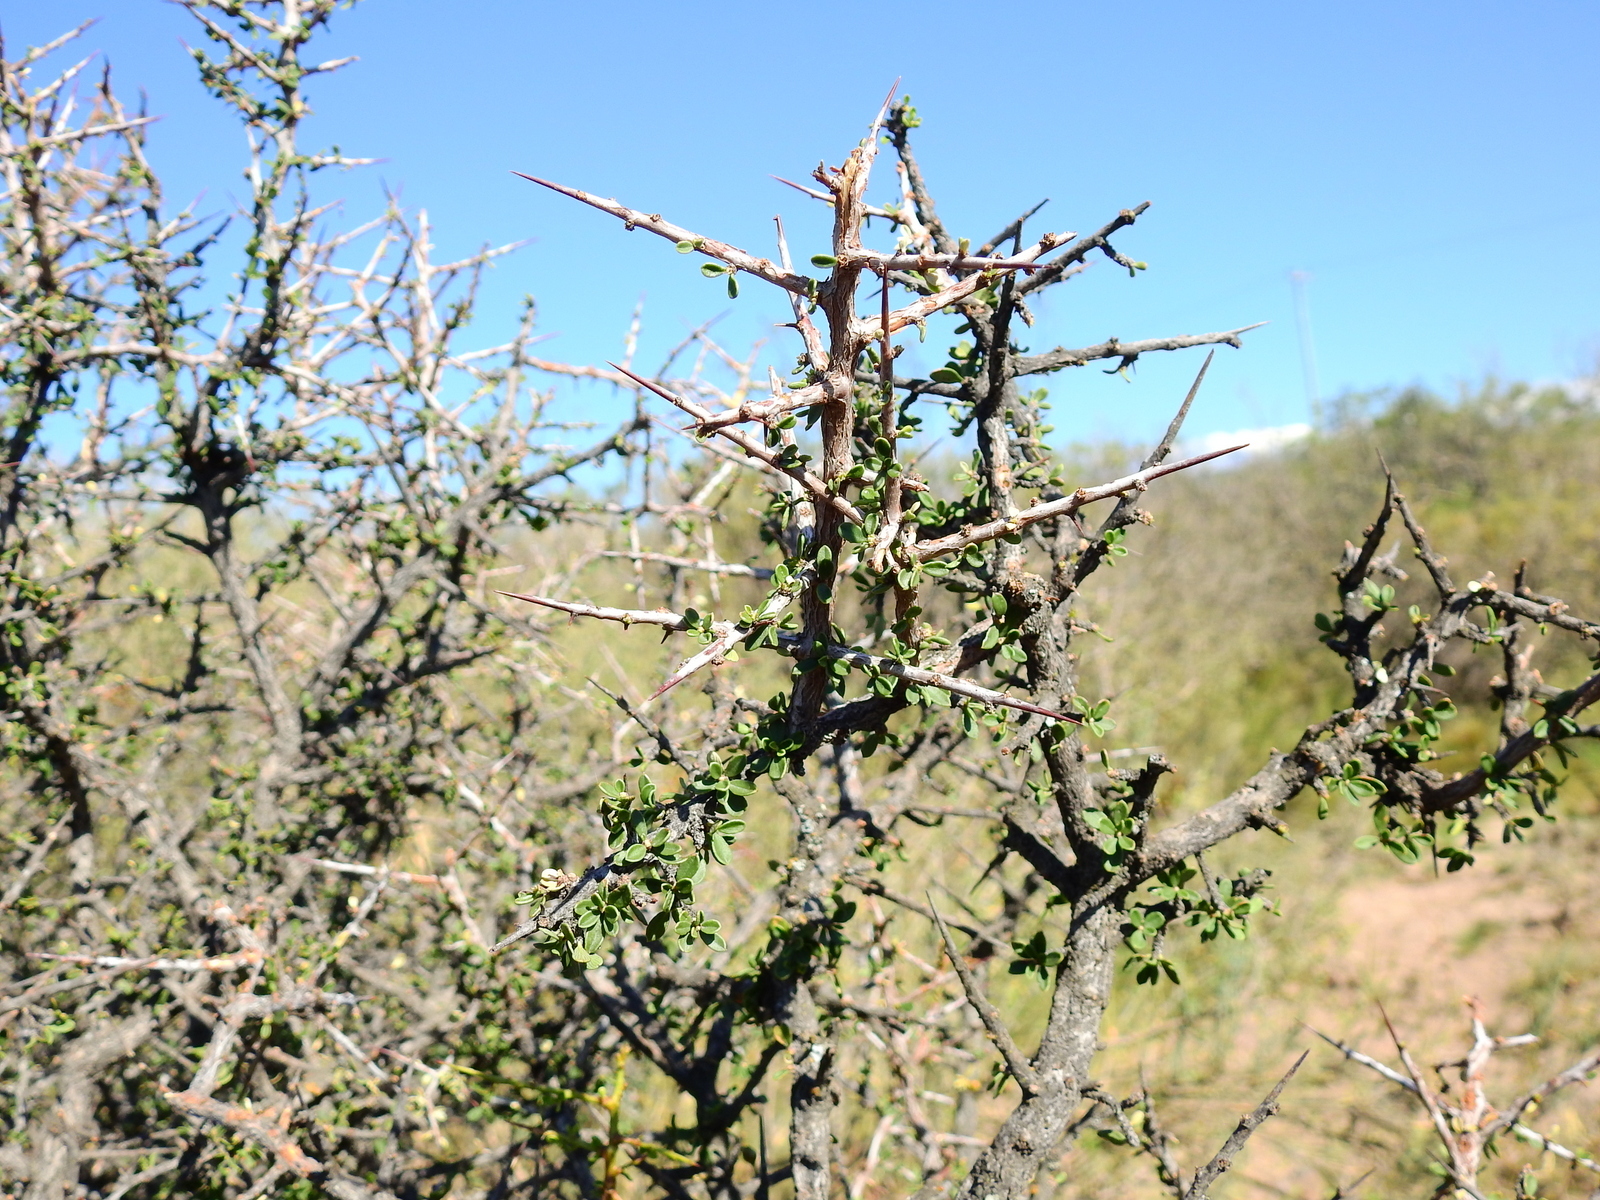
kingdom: Plantae
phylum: Tracheophyta
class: Magnoliopsida
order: Rosales
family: Rhamnaceae
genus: Condalia
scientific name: Condalia microphylla
